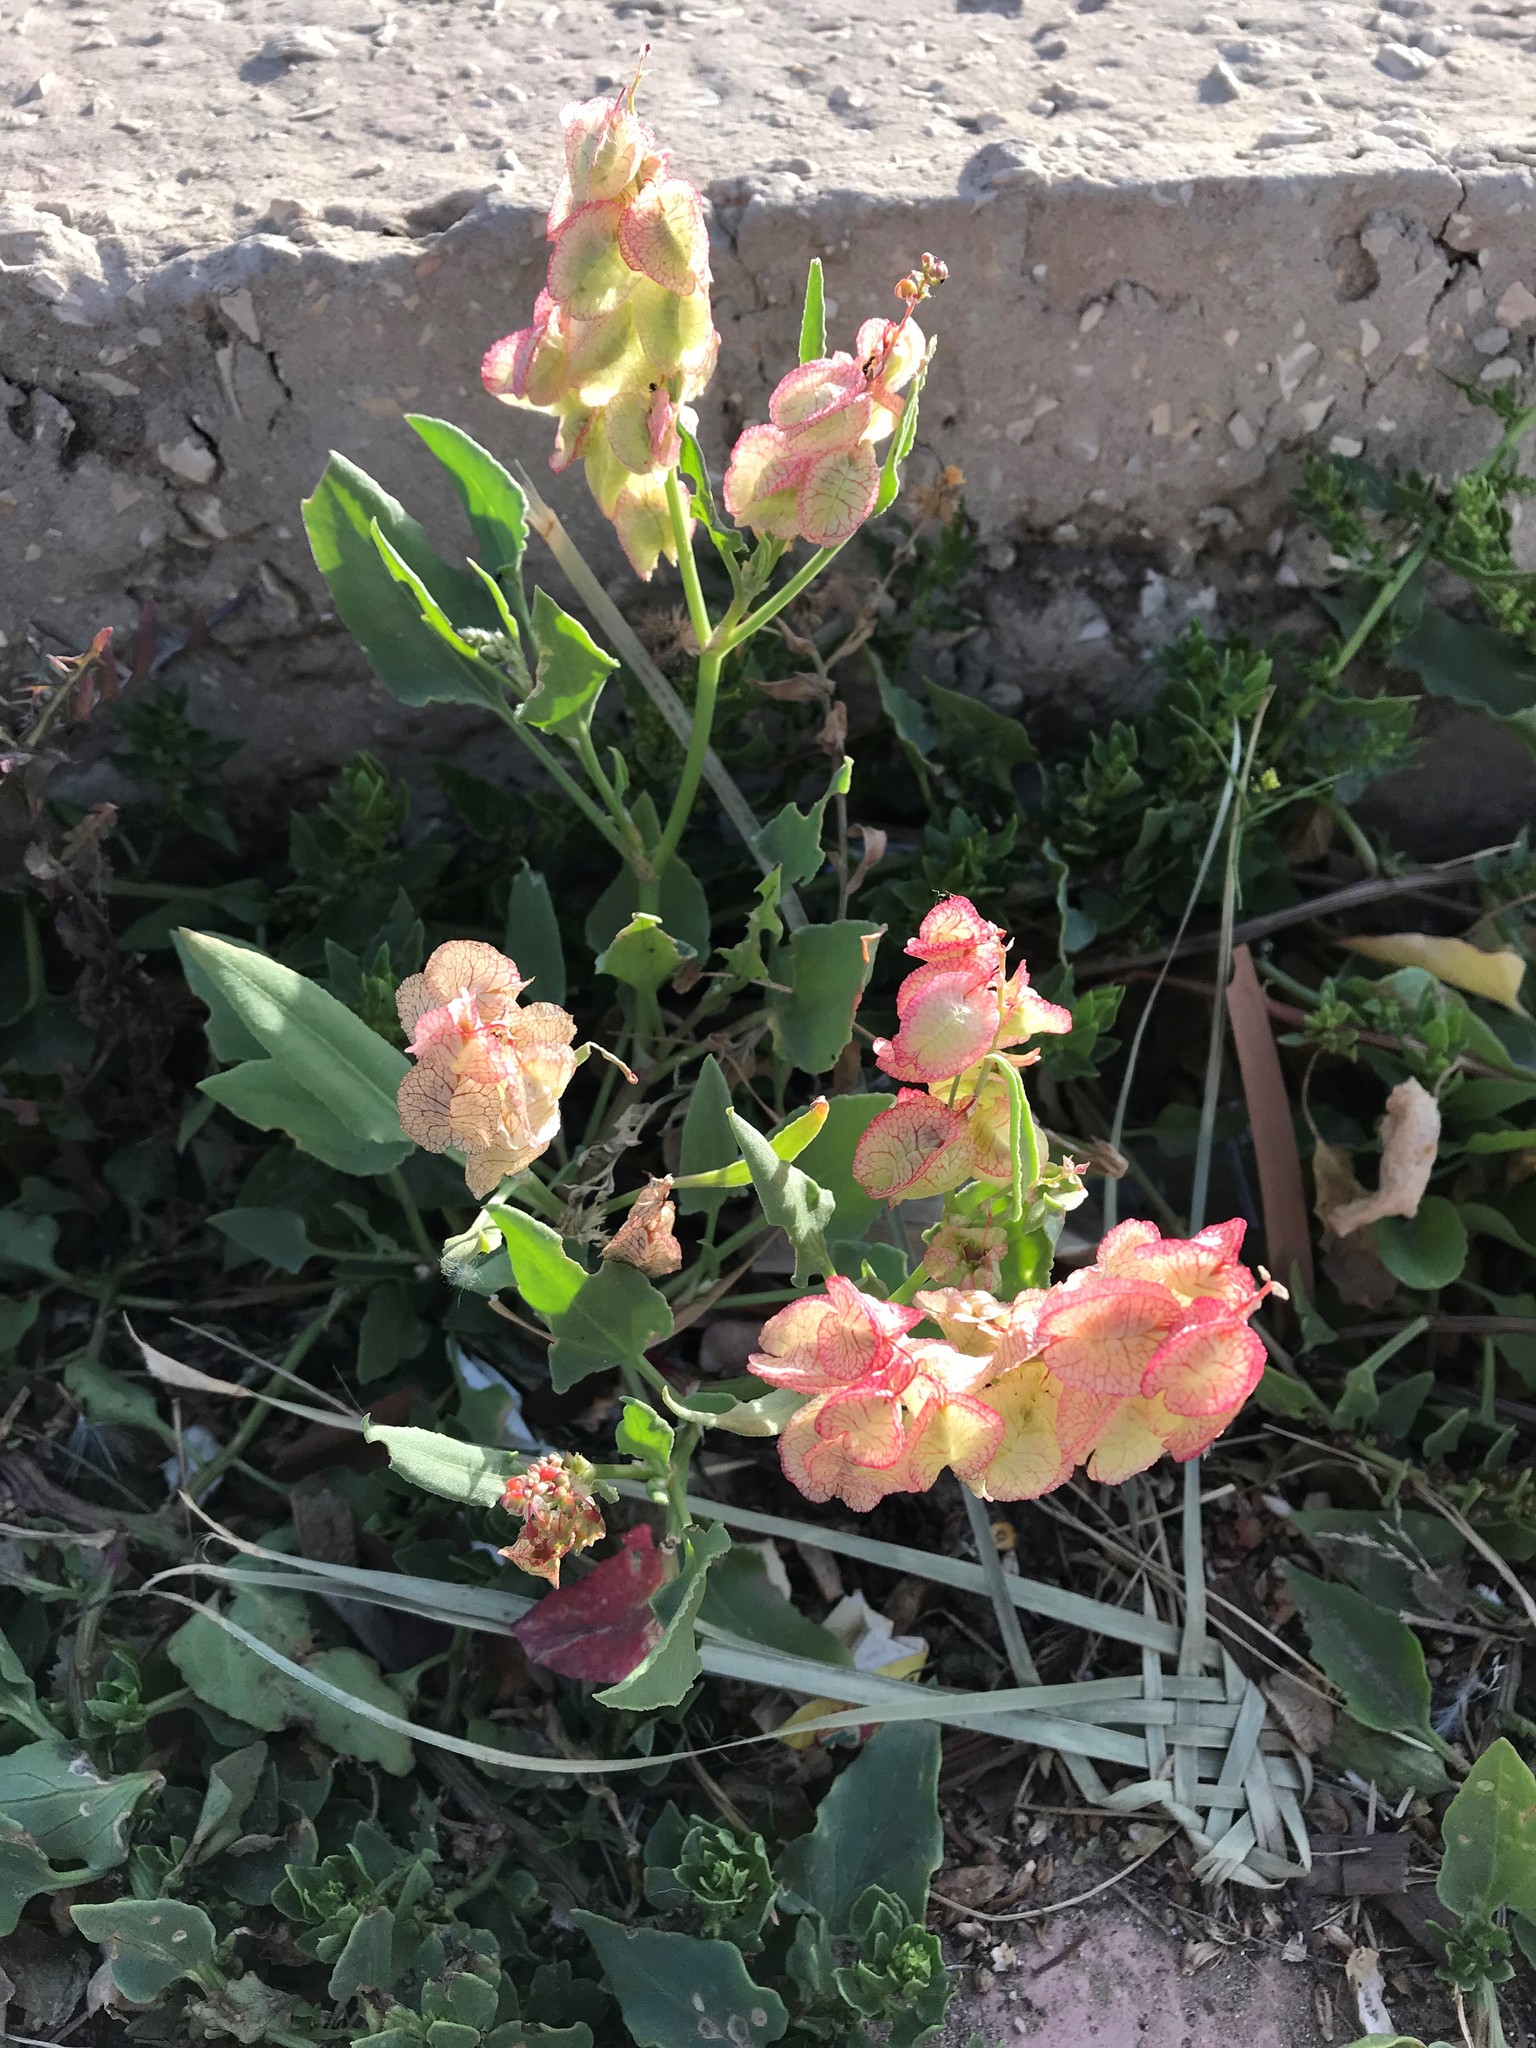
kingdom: Plantae
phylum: Tracheophyta
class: Magnoliopsida
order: Caryophyllales
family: Polygonaceae
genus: Rumex
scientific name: Rumex vesicarius
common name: Bladder dock
